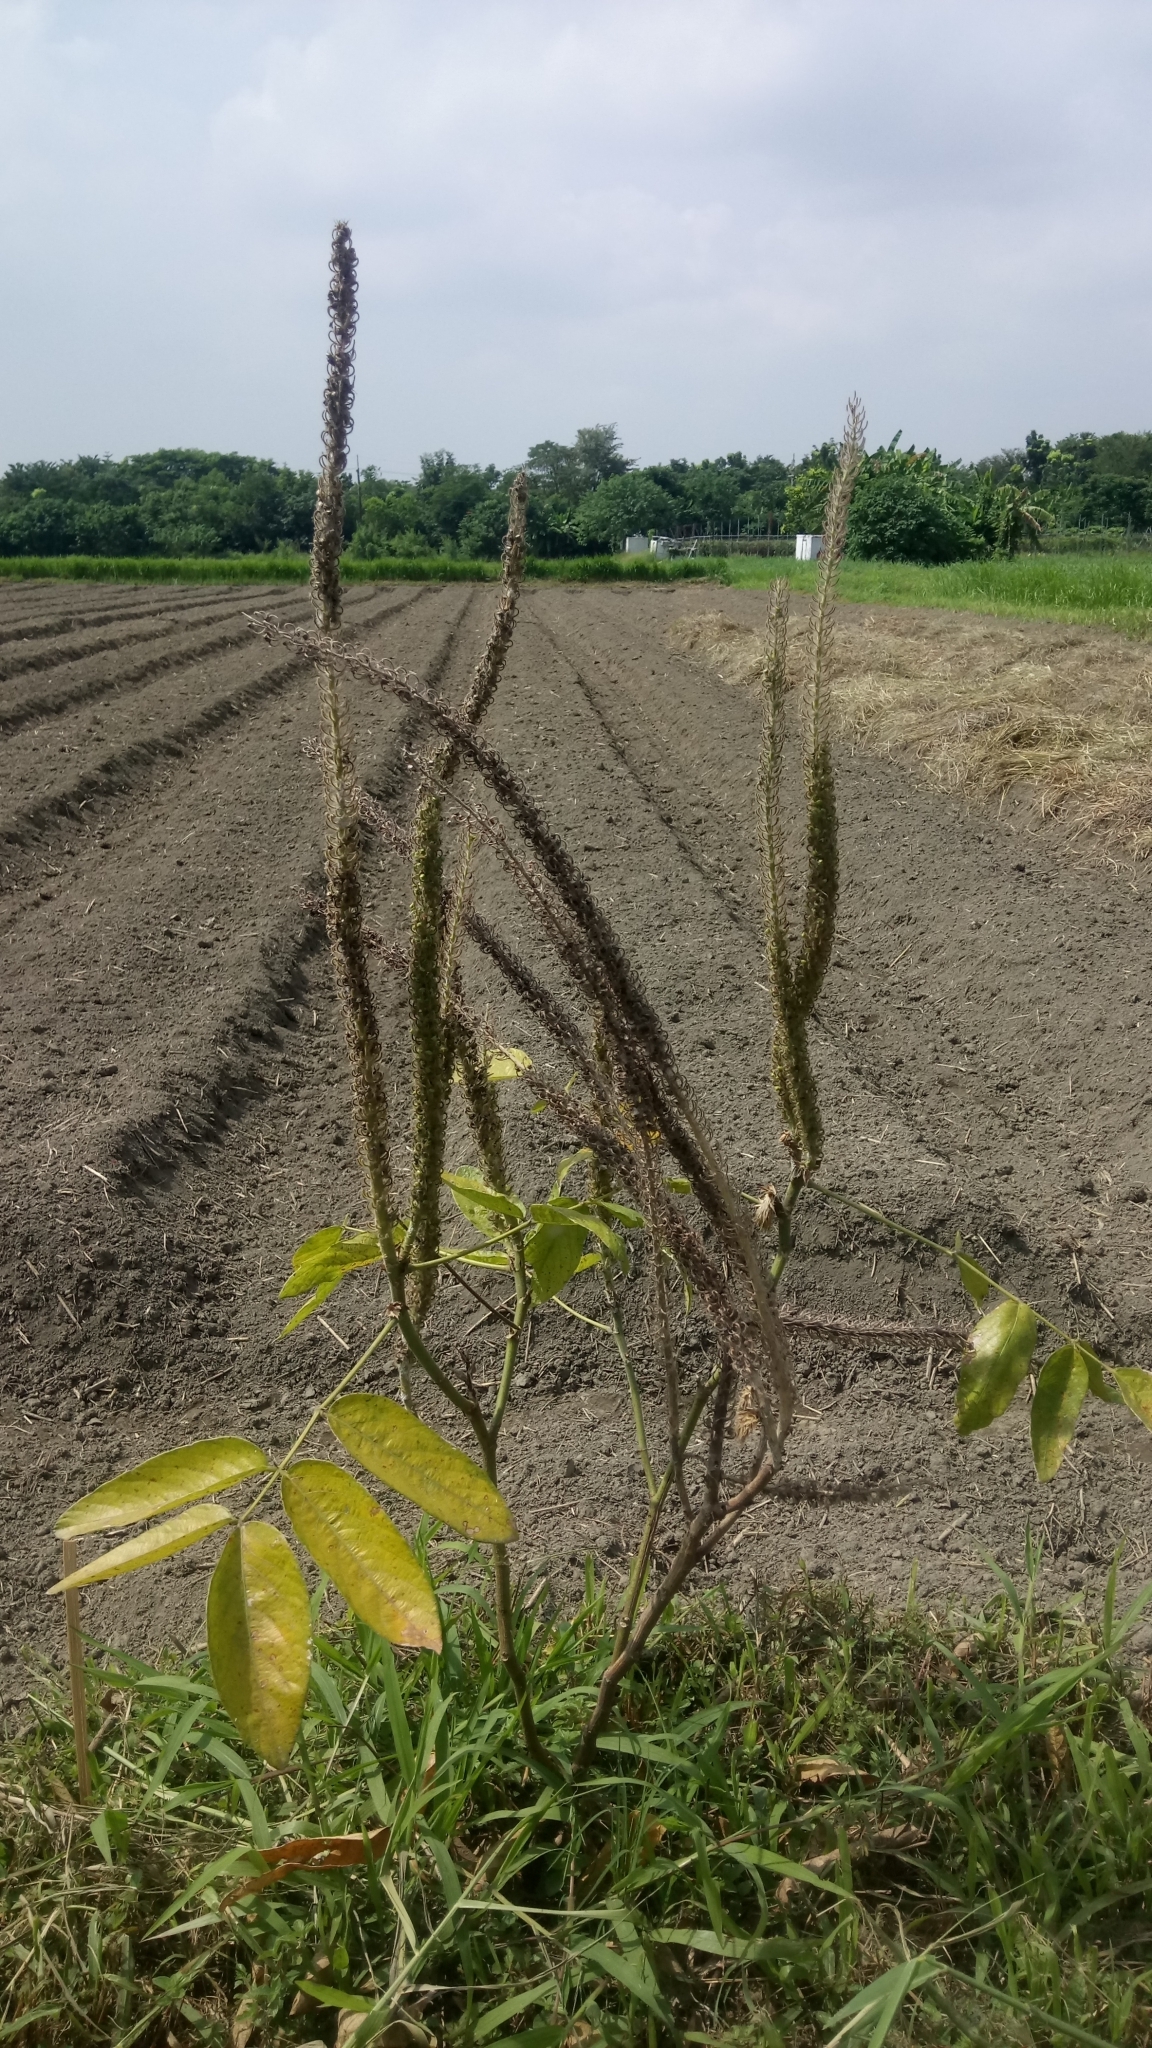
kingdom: Plantae
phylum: Tracheophyta
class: Magnoliopsida
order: Fabales
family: Fabaceae
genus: Uraria
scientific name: Uraria crinita
